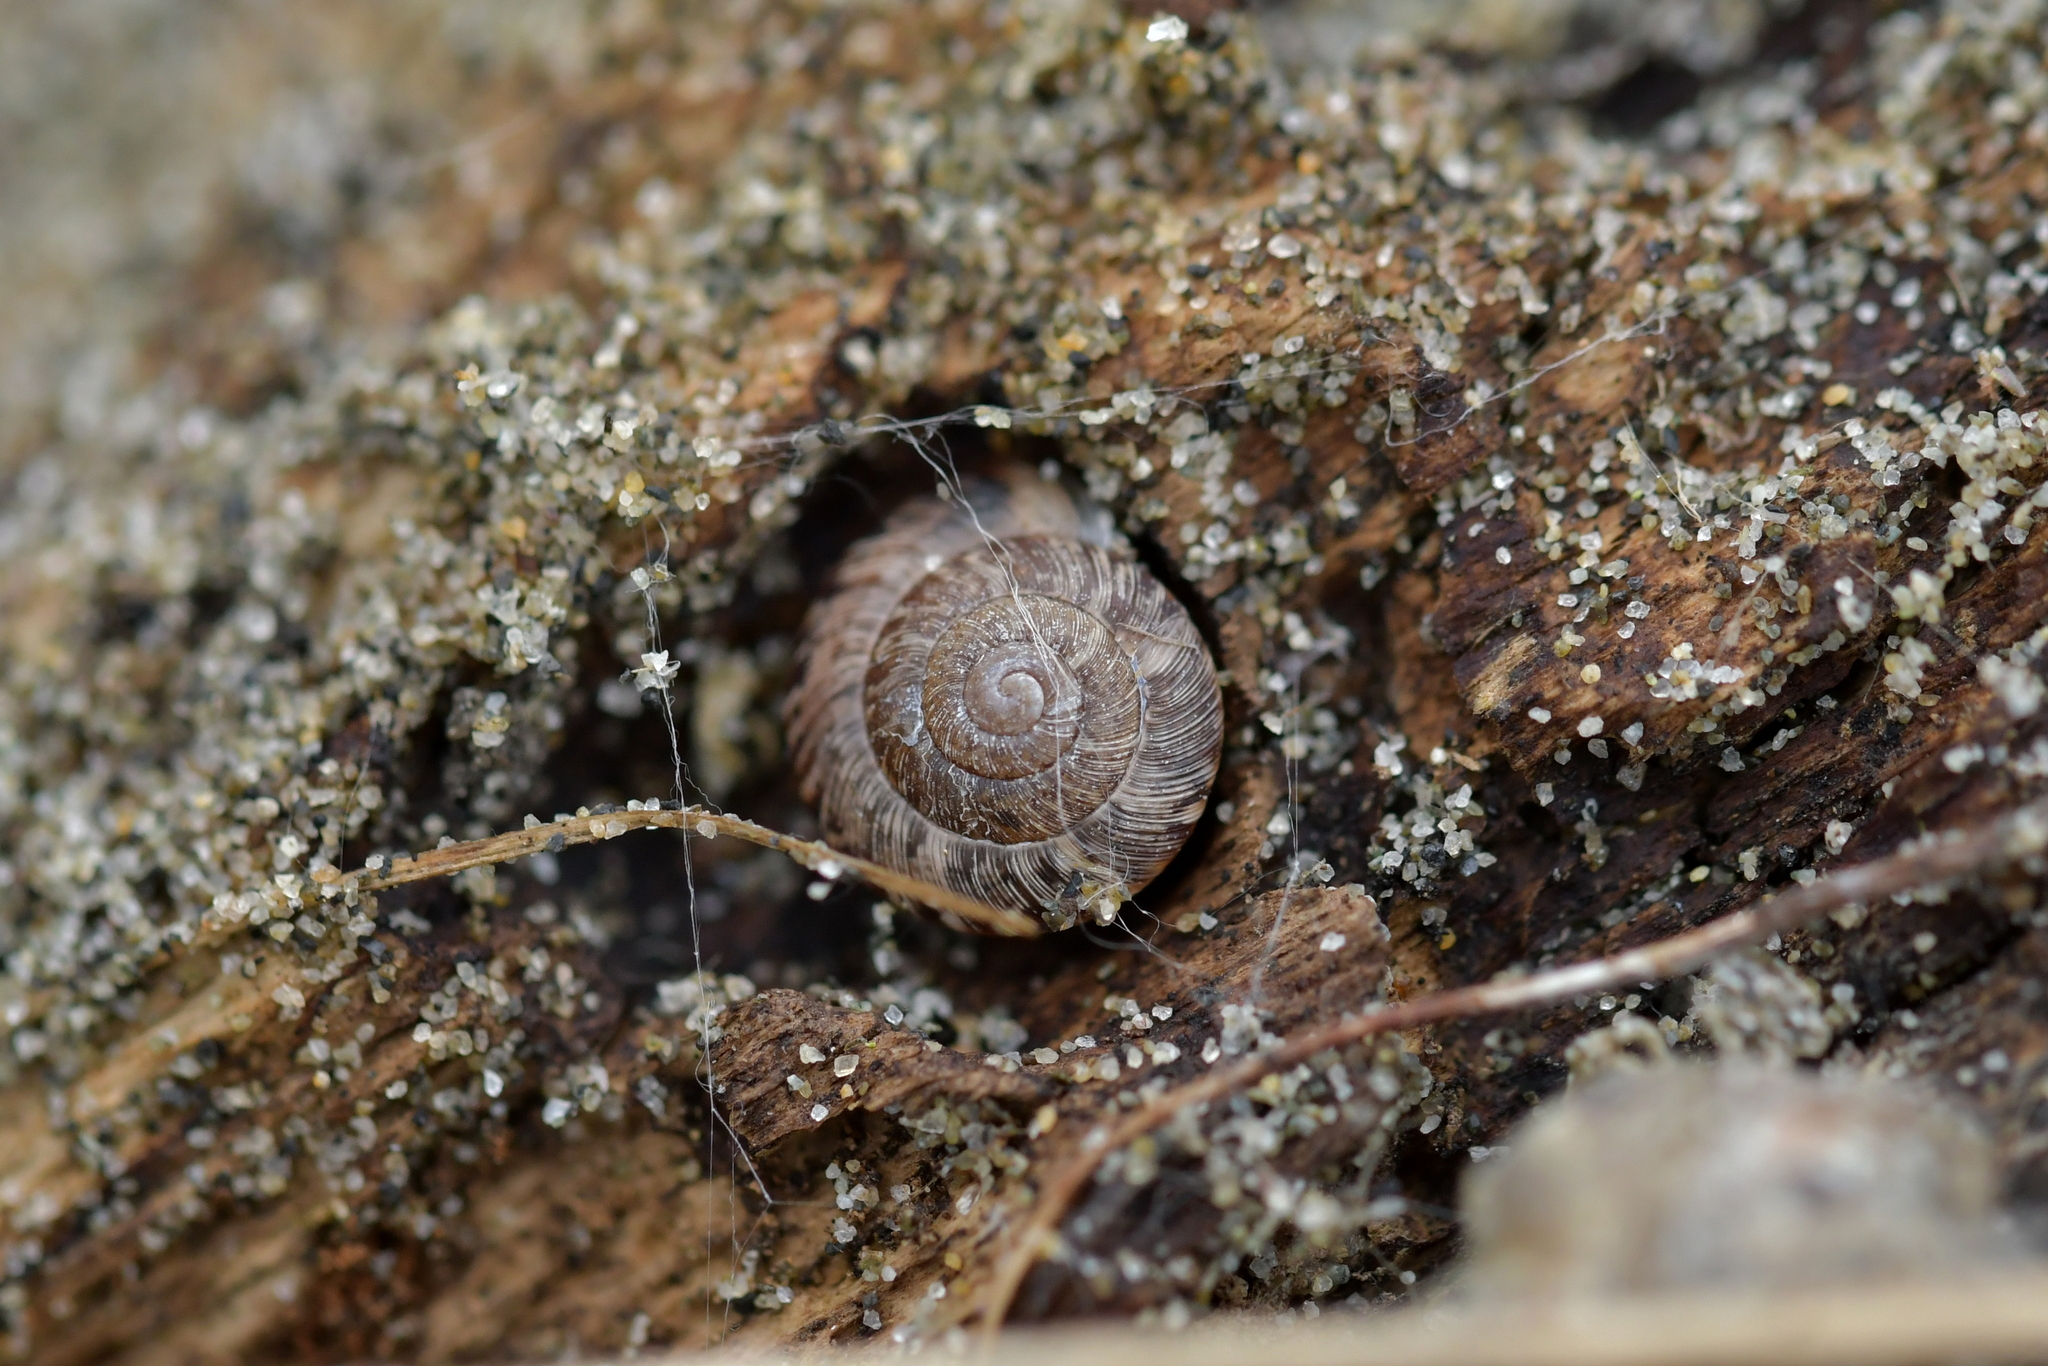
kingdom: Animalia
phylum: Mollusca
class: Gastropoda
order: Stylommatophora
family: Geomitridae
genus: Xeroplexa
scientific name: Xeroplexa intersecta
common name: Wrinkled snail
